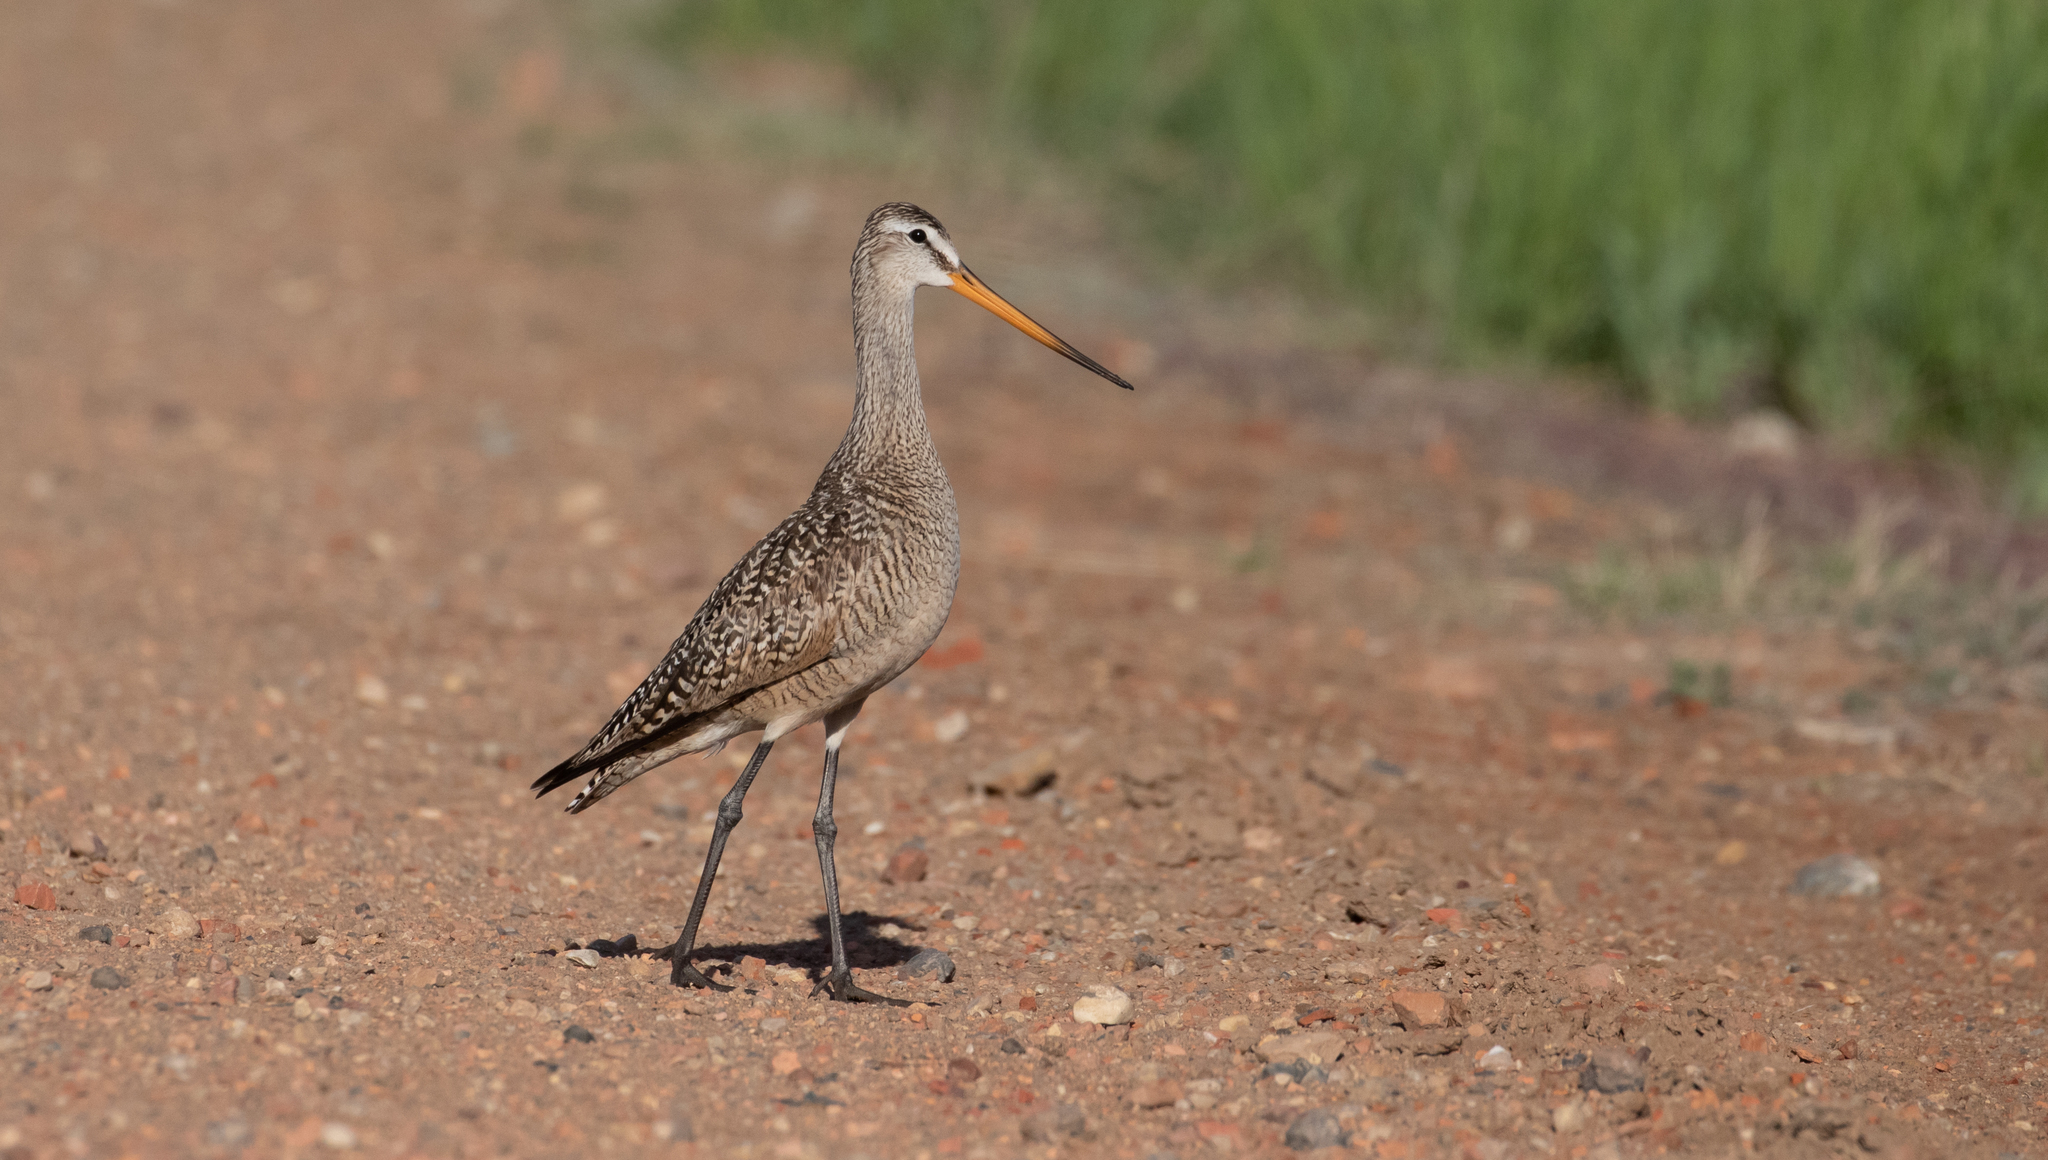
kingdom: Animalia
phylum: Chordata
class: Aves
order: Charadriiformes
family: Scolopacidae
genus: Limosa
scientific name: Limosa fedoa
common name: Marbled godwit
